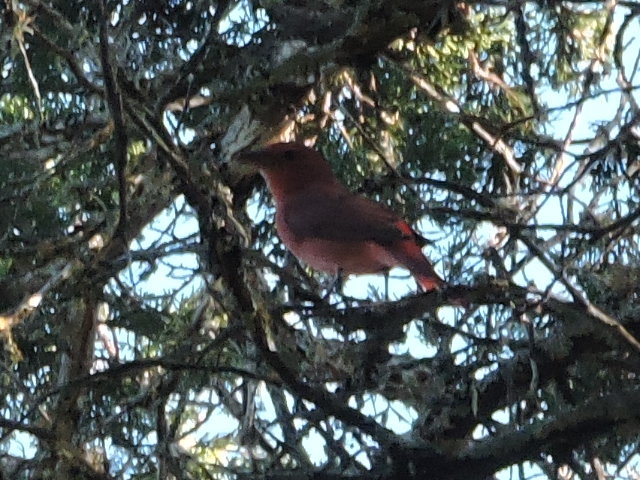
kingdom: Animalia
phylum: Chordata
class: Aves
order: Passeriformes
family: Cardinalidae
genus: Piranga
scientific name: Piranga rubra
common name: Summer tanager
